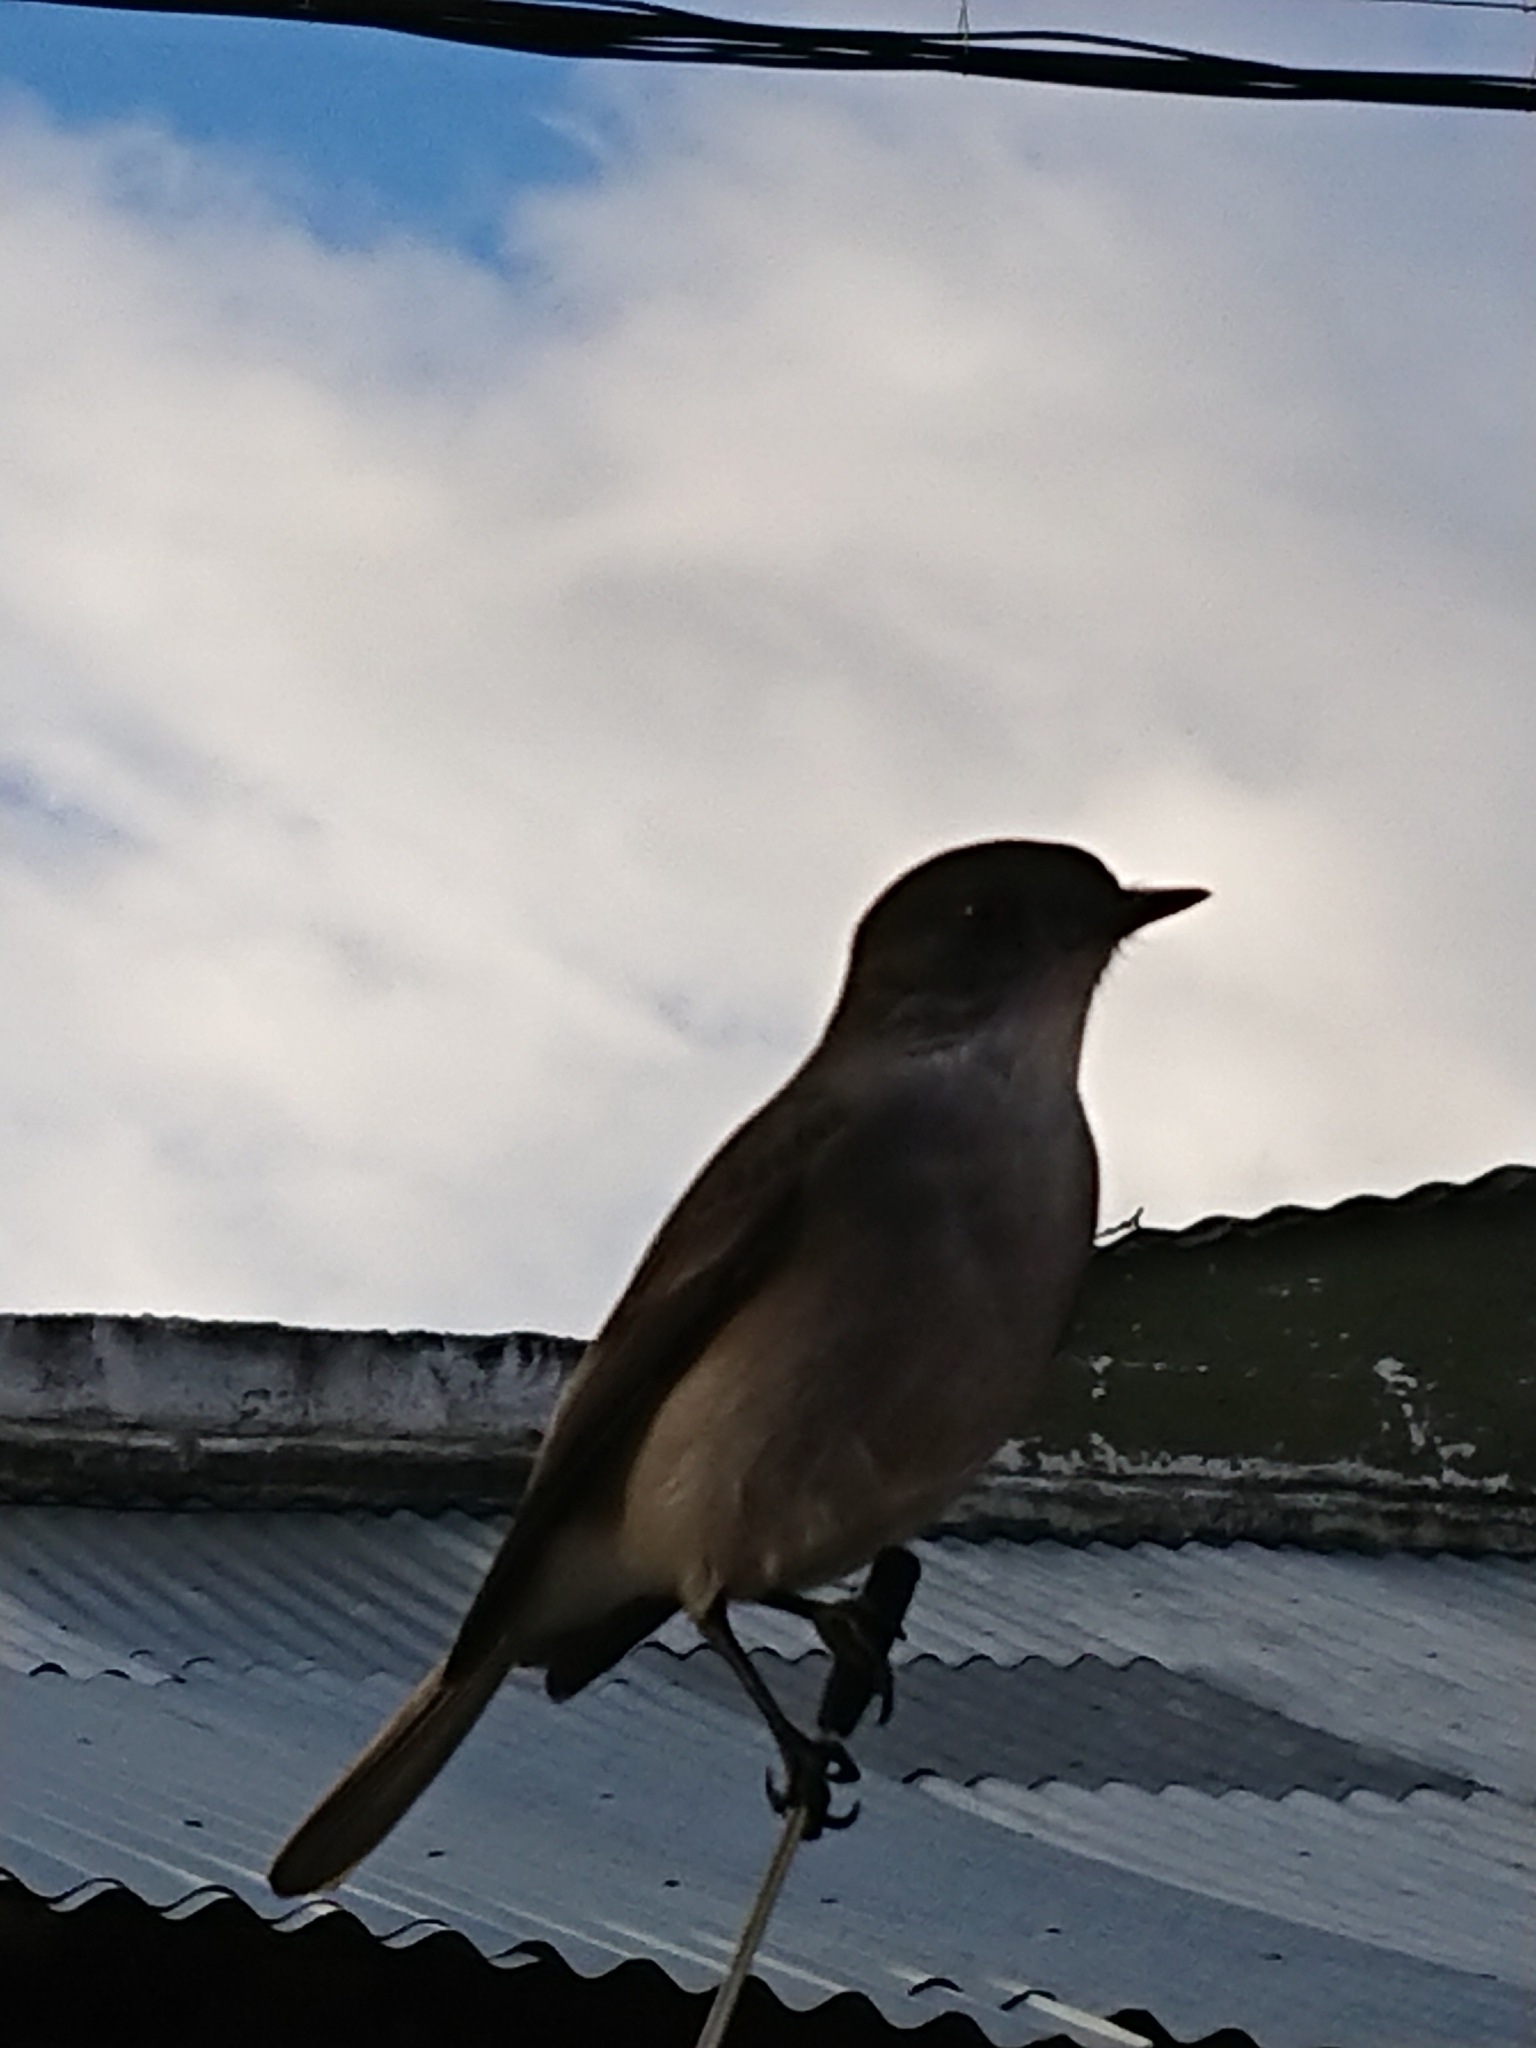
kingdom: Animalia
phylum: Chordata
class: Aves
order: Passeriformes
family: Tyrannidae
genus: Xolmis
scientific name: Xolmis pyrope
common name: Fire-eyed diucon
